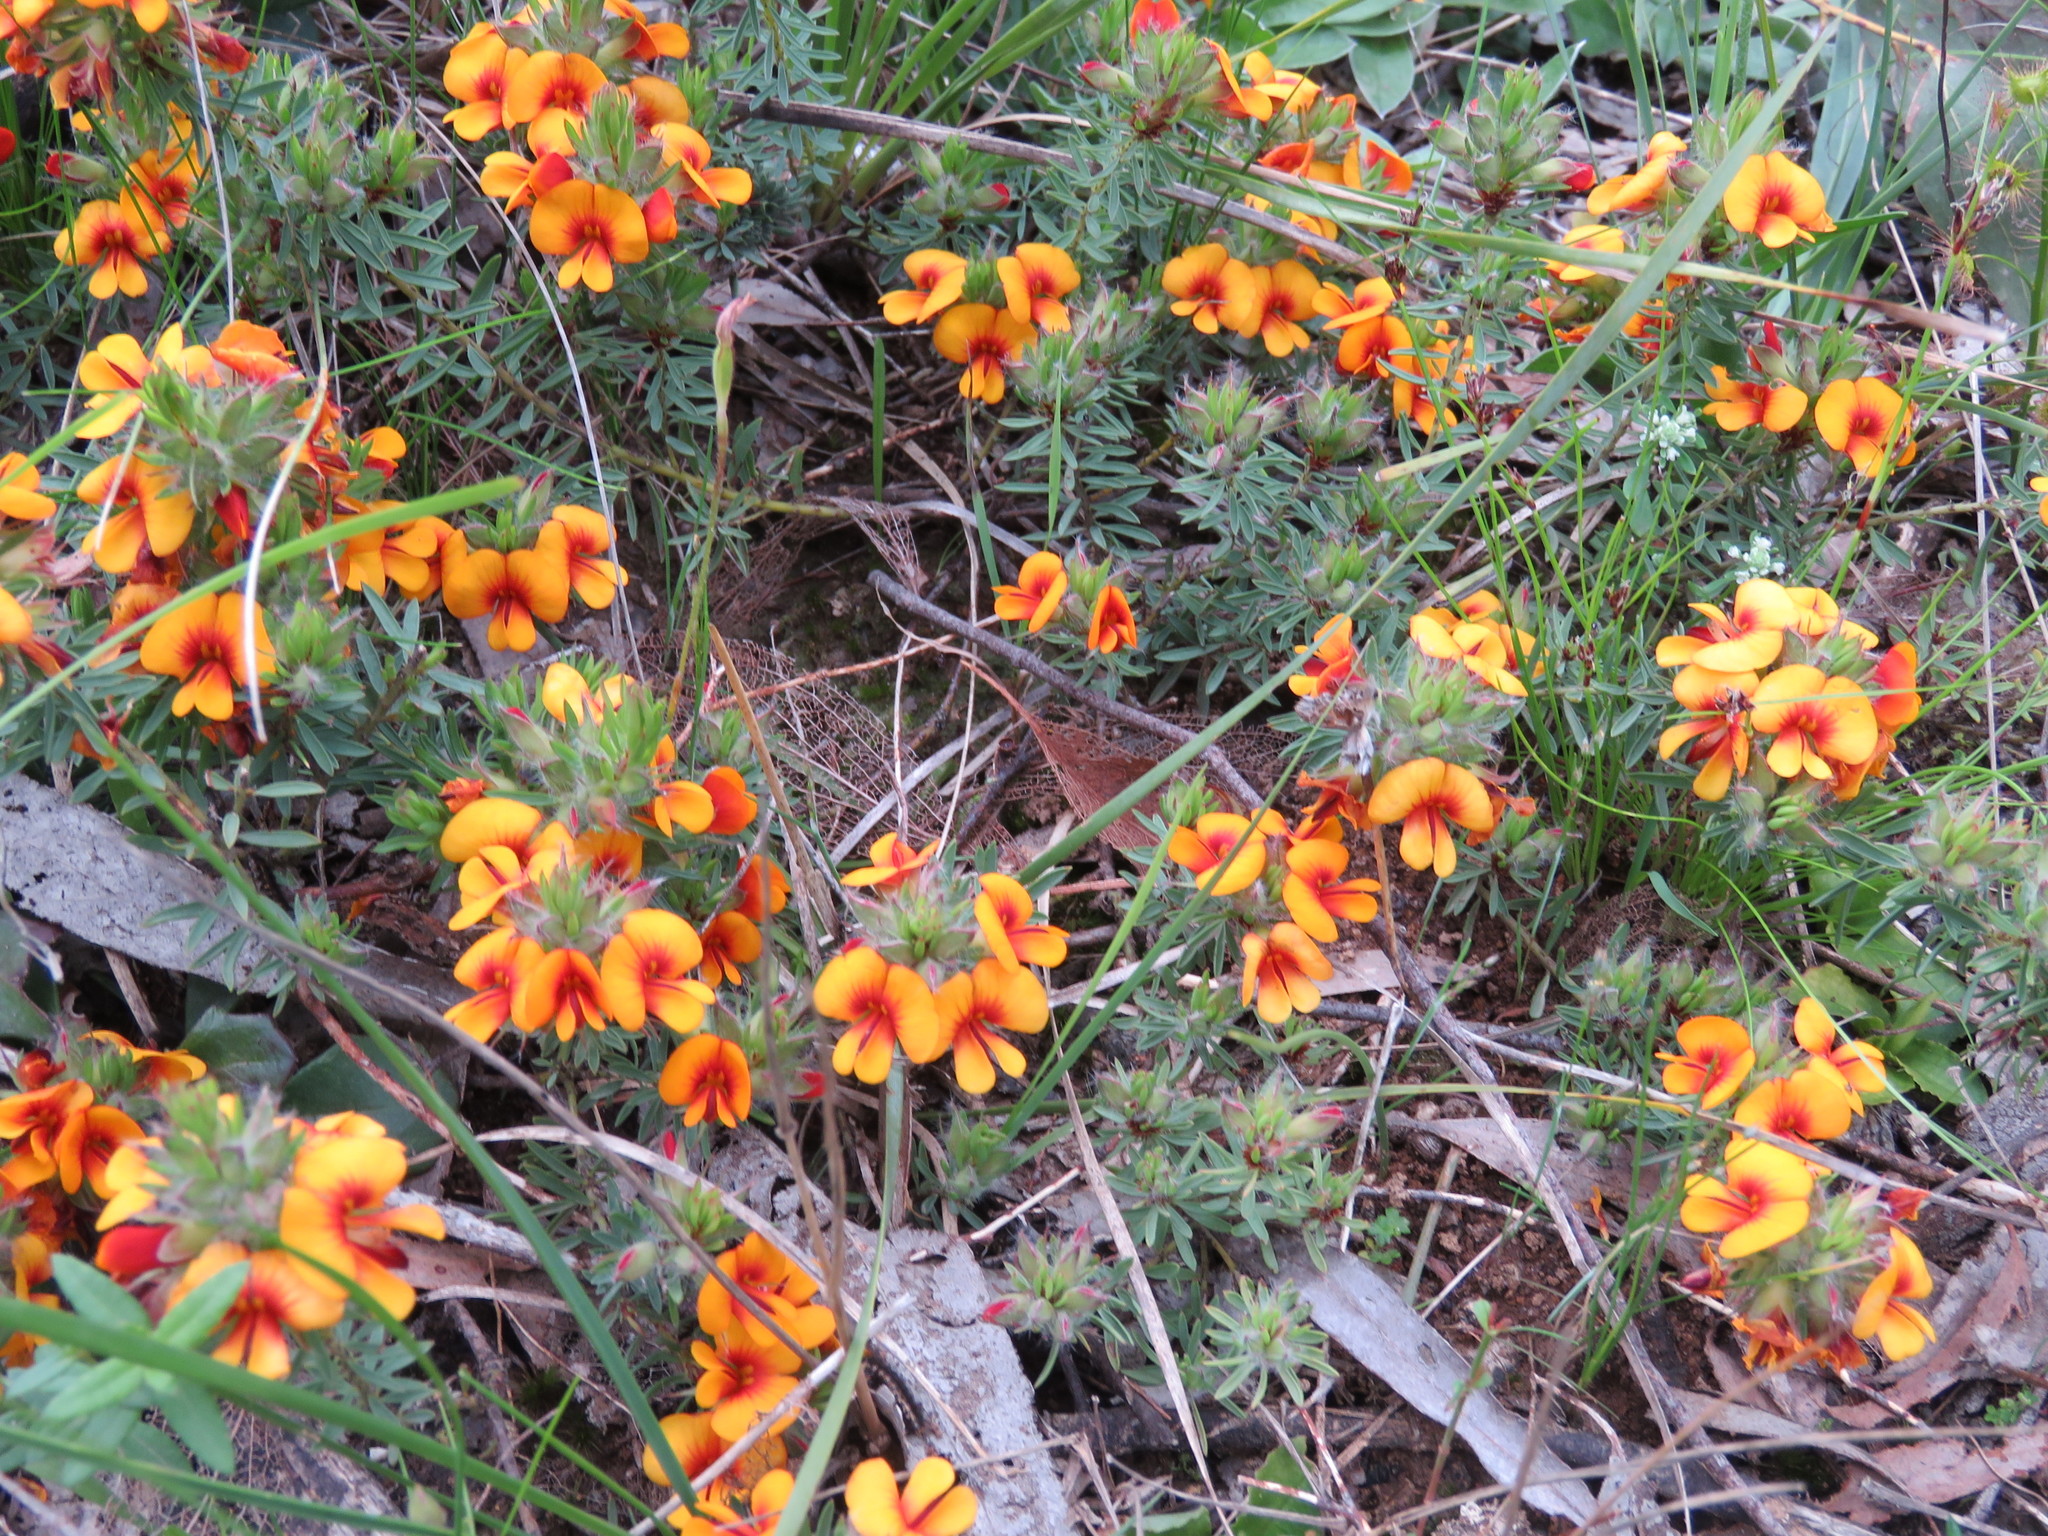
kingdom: Plantae
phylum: Tracheophyta
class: Magnoliopsida
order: Fabales
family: Fabaceae
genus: Pultenaea
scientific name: Pultenaea humilis
